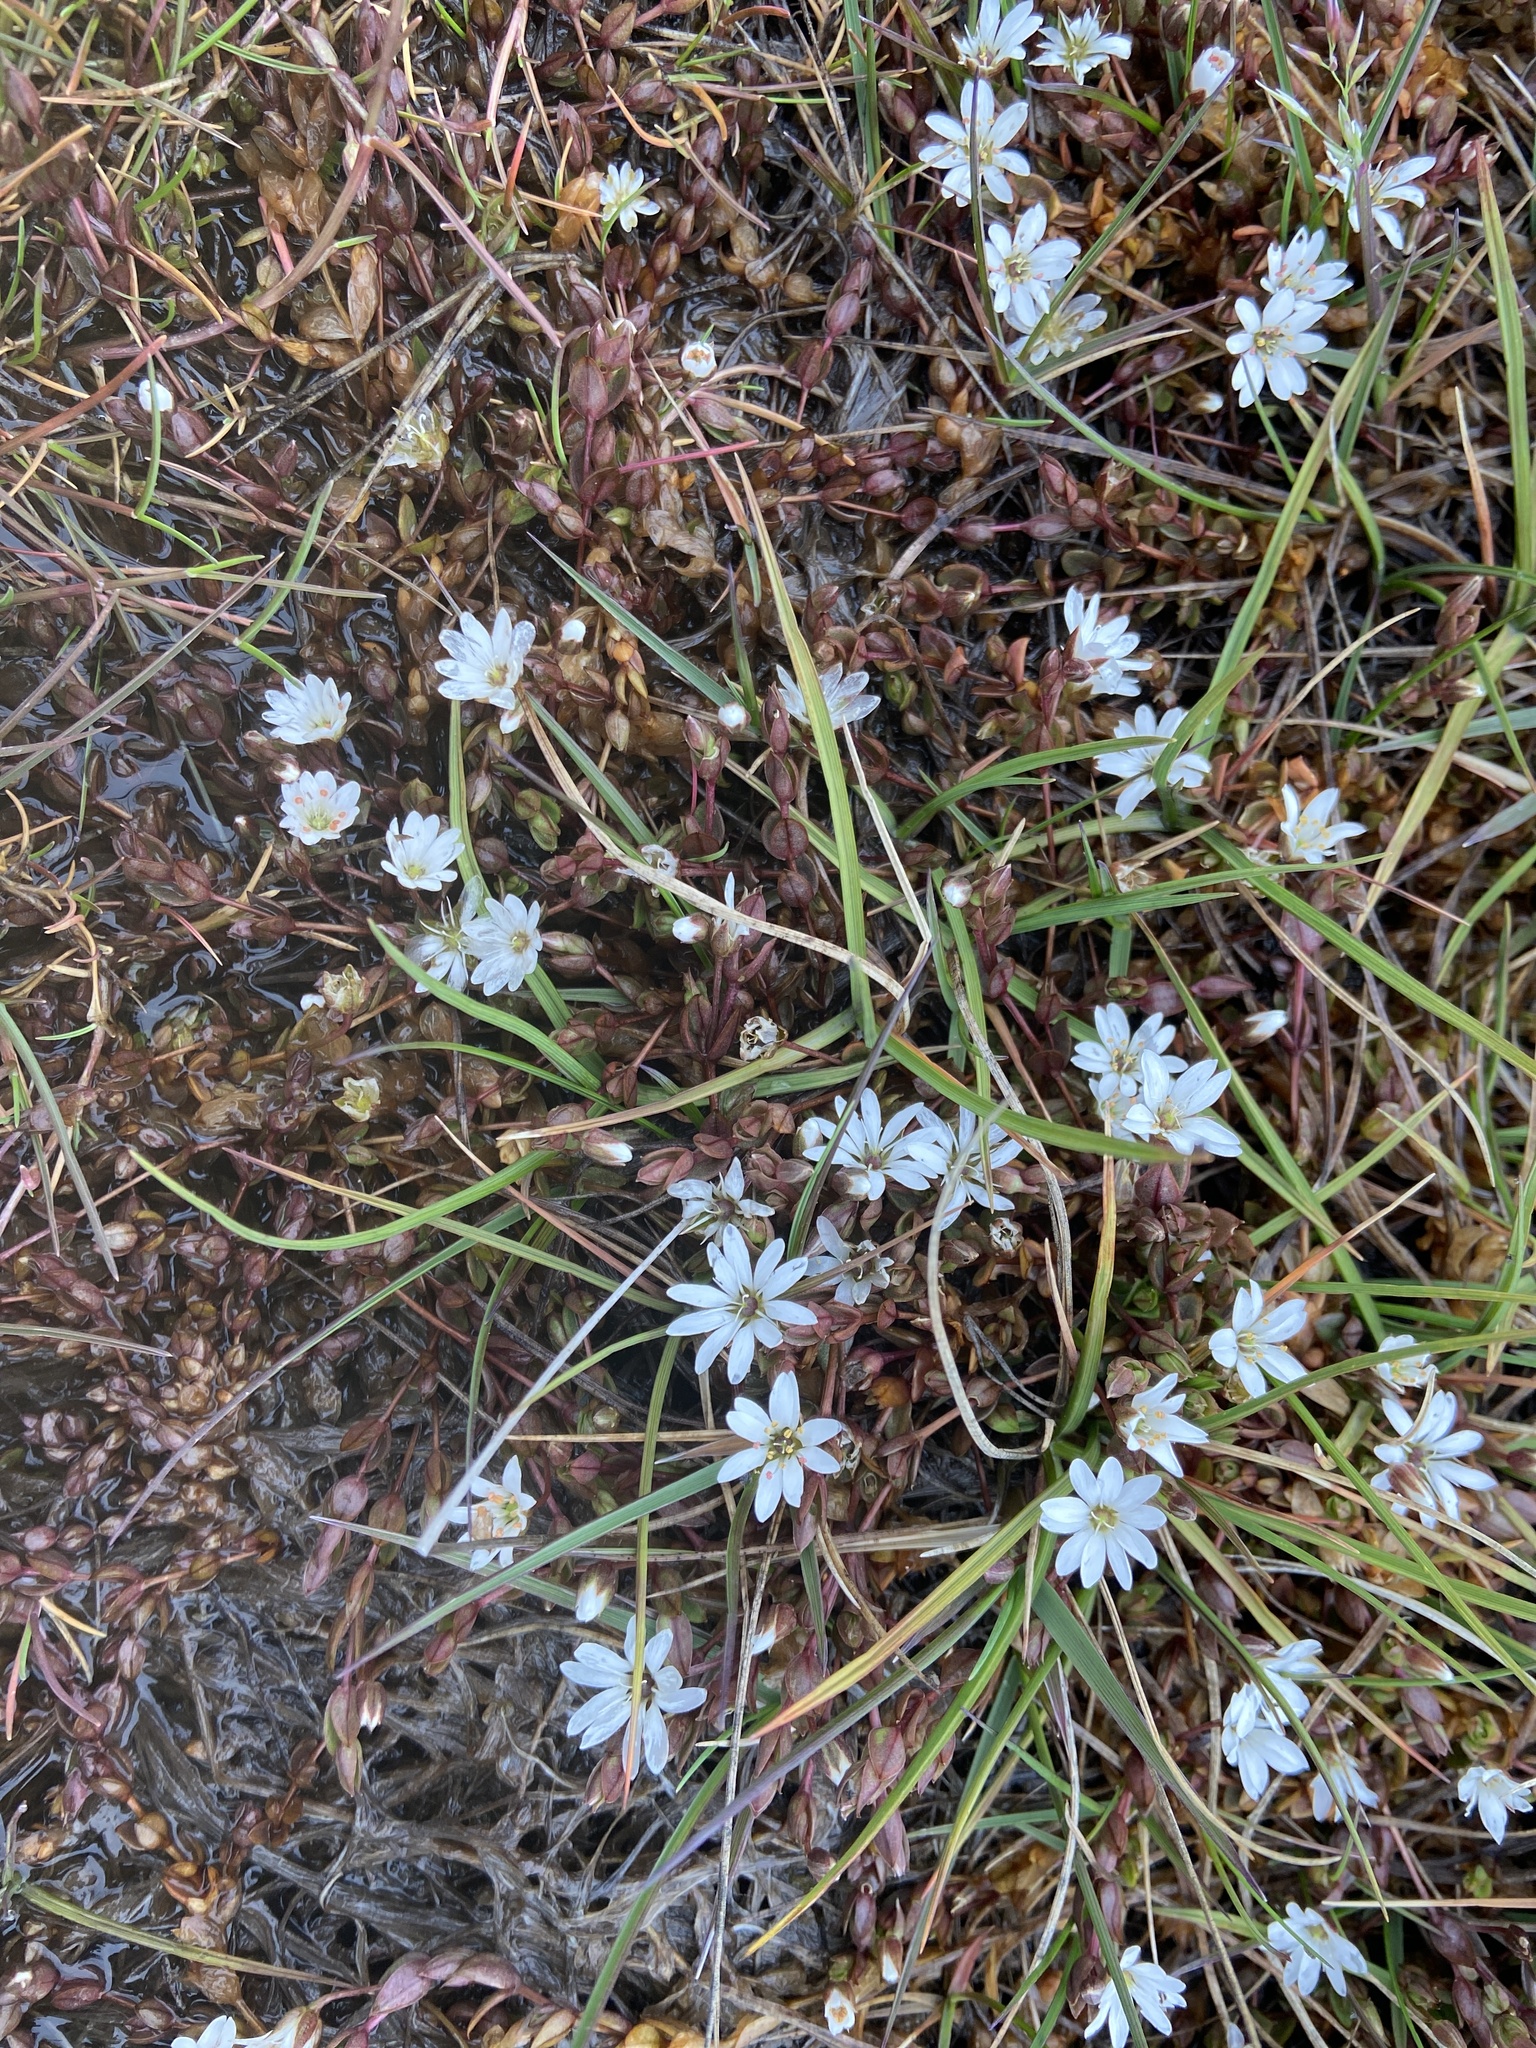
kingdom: Plantae
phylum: Tracheophyta
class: Magnoliopsida
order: Caryophyllales
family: Caryophyllaceae
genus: Stellaria
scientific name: Stellaria humifusa
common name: Creeping starwort
